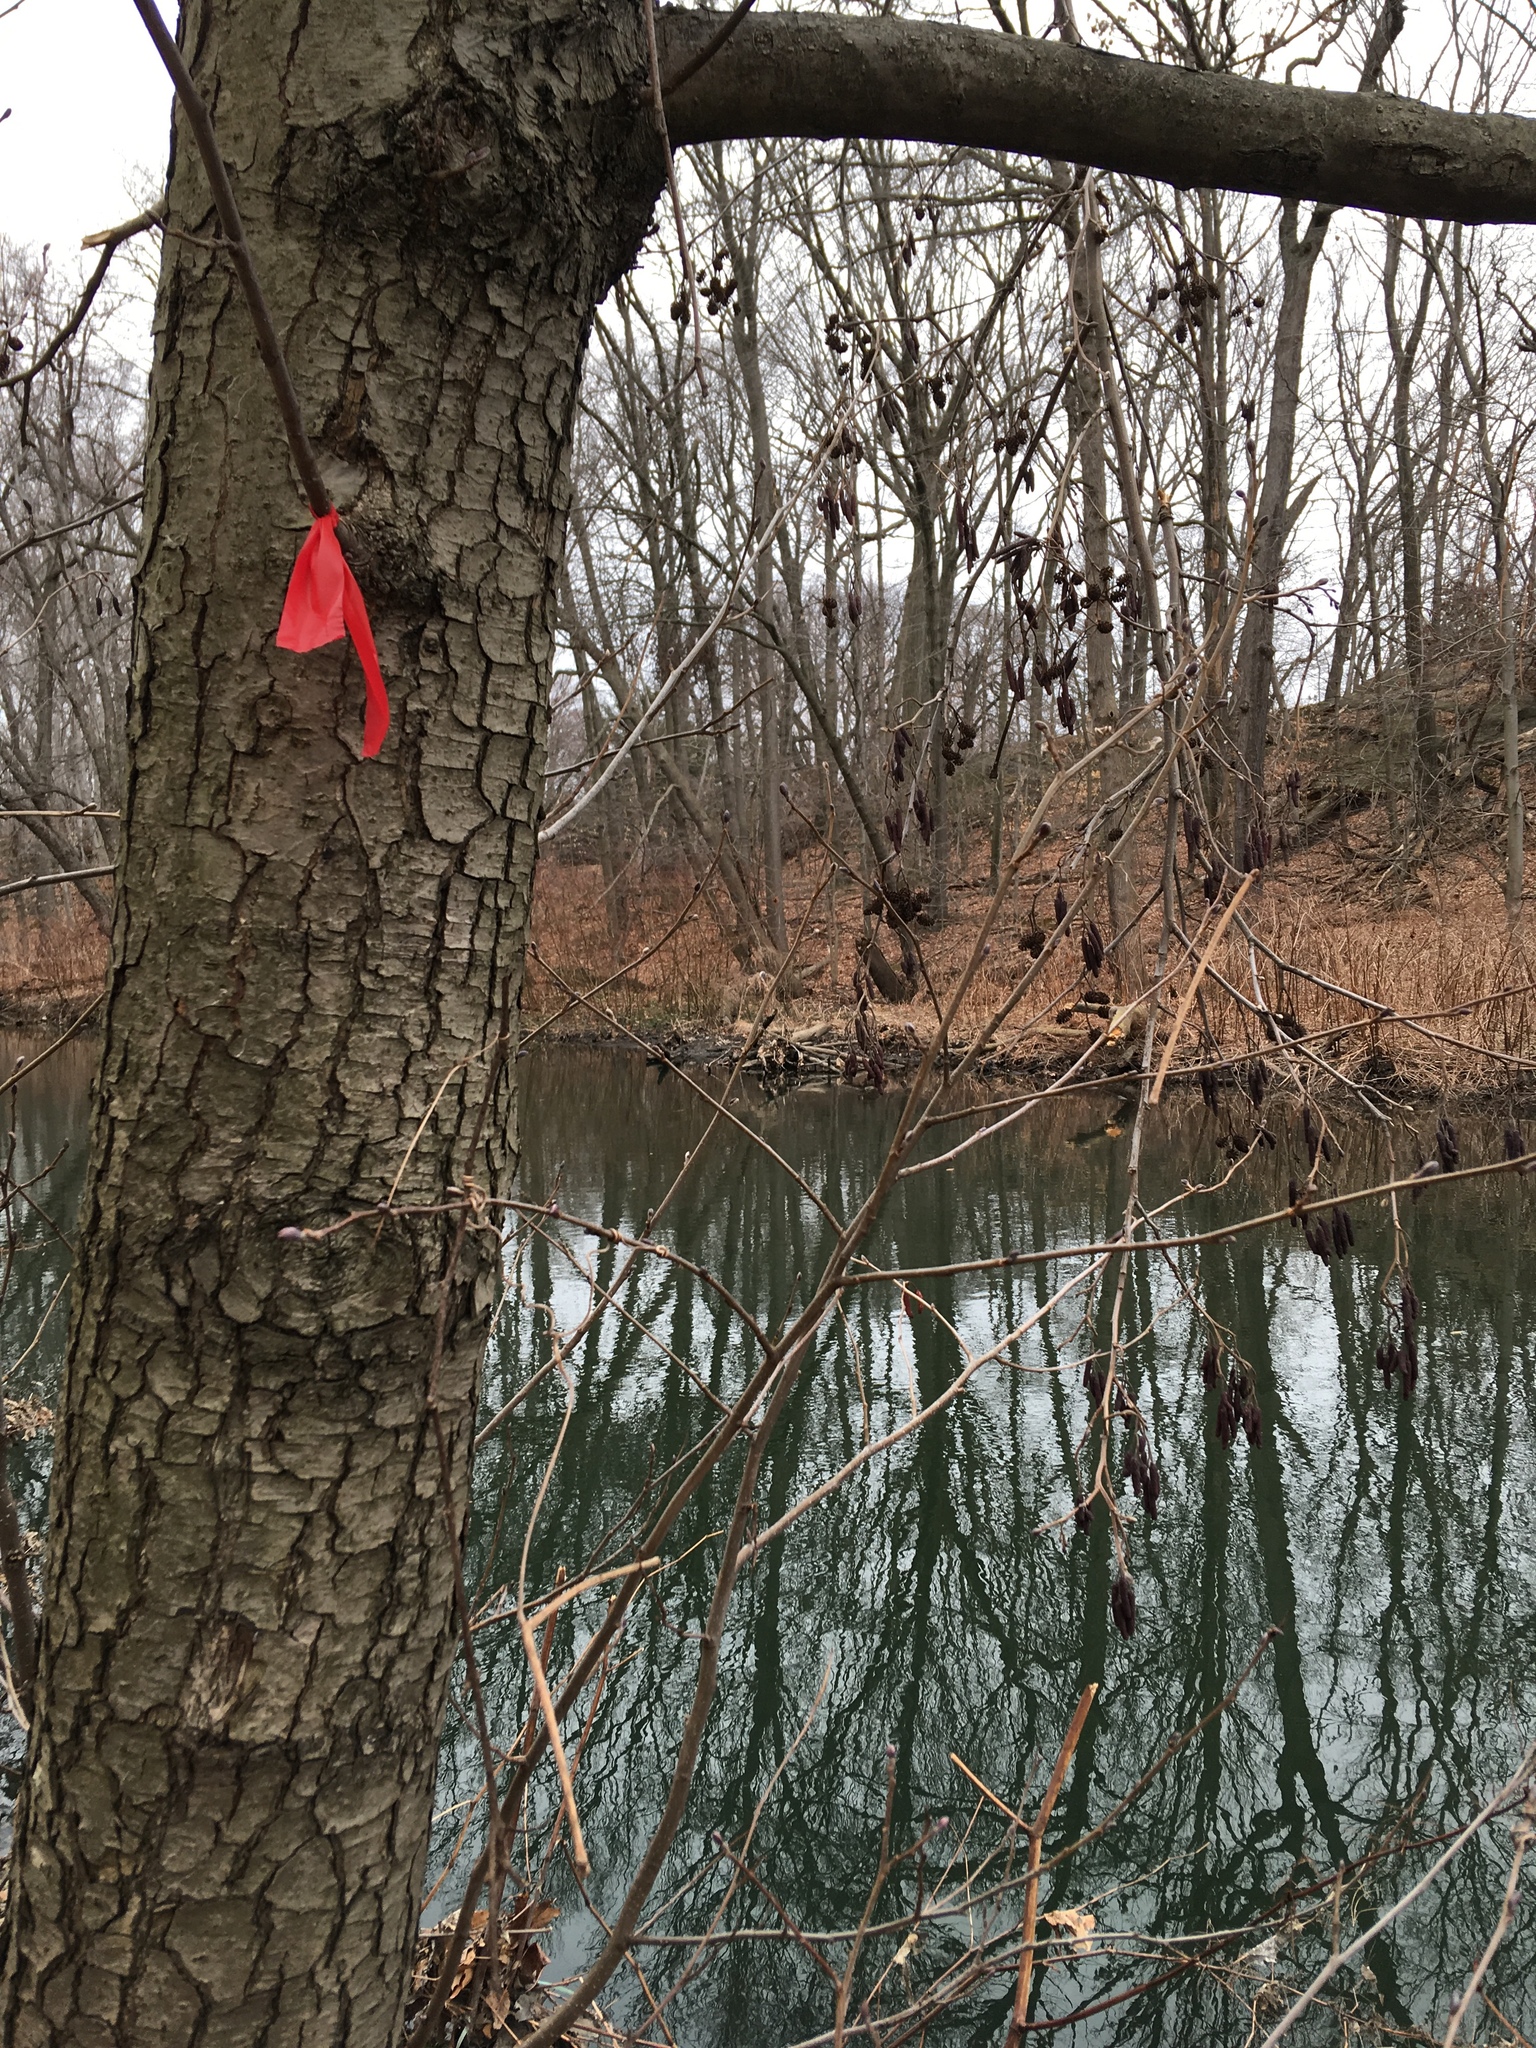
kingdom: Plantae
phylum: Tracheophyta
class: Magnoliopsida
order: Fagales
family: Betulaceae
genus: Alnus
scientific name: Alnus glutinosa
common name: Black alder
